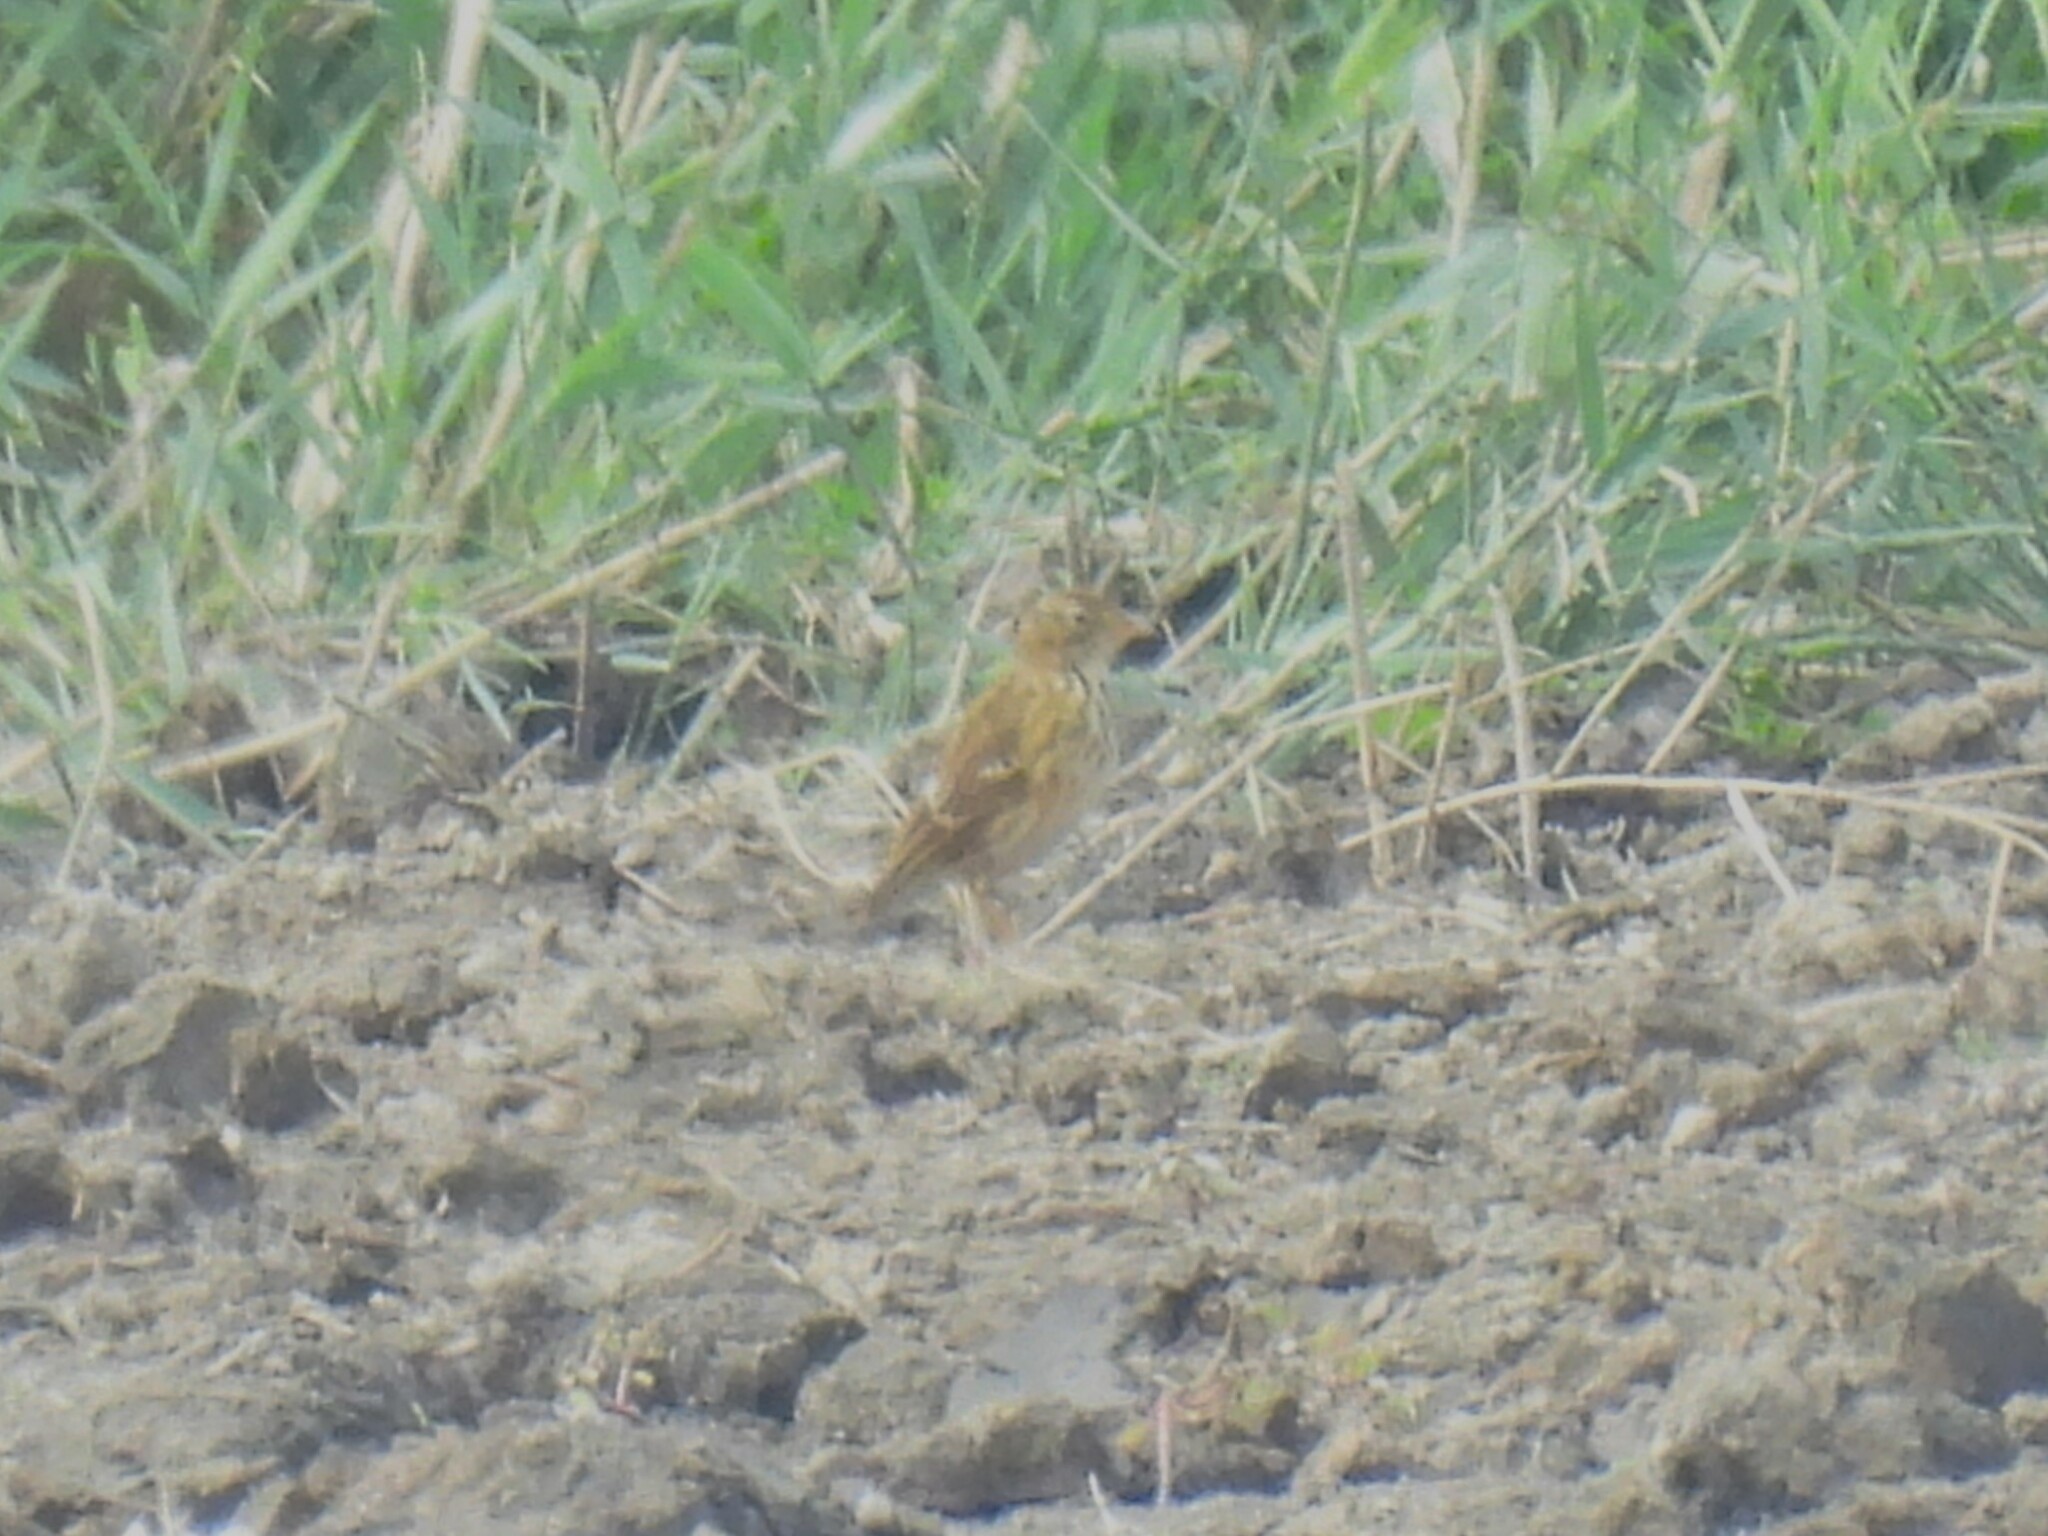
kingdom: Animalia
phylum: Chordata
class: Aves
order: Passeriformes
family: Motacillidae
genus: Anthus
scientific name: Anthus pratensis
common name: Meadow pipit
